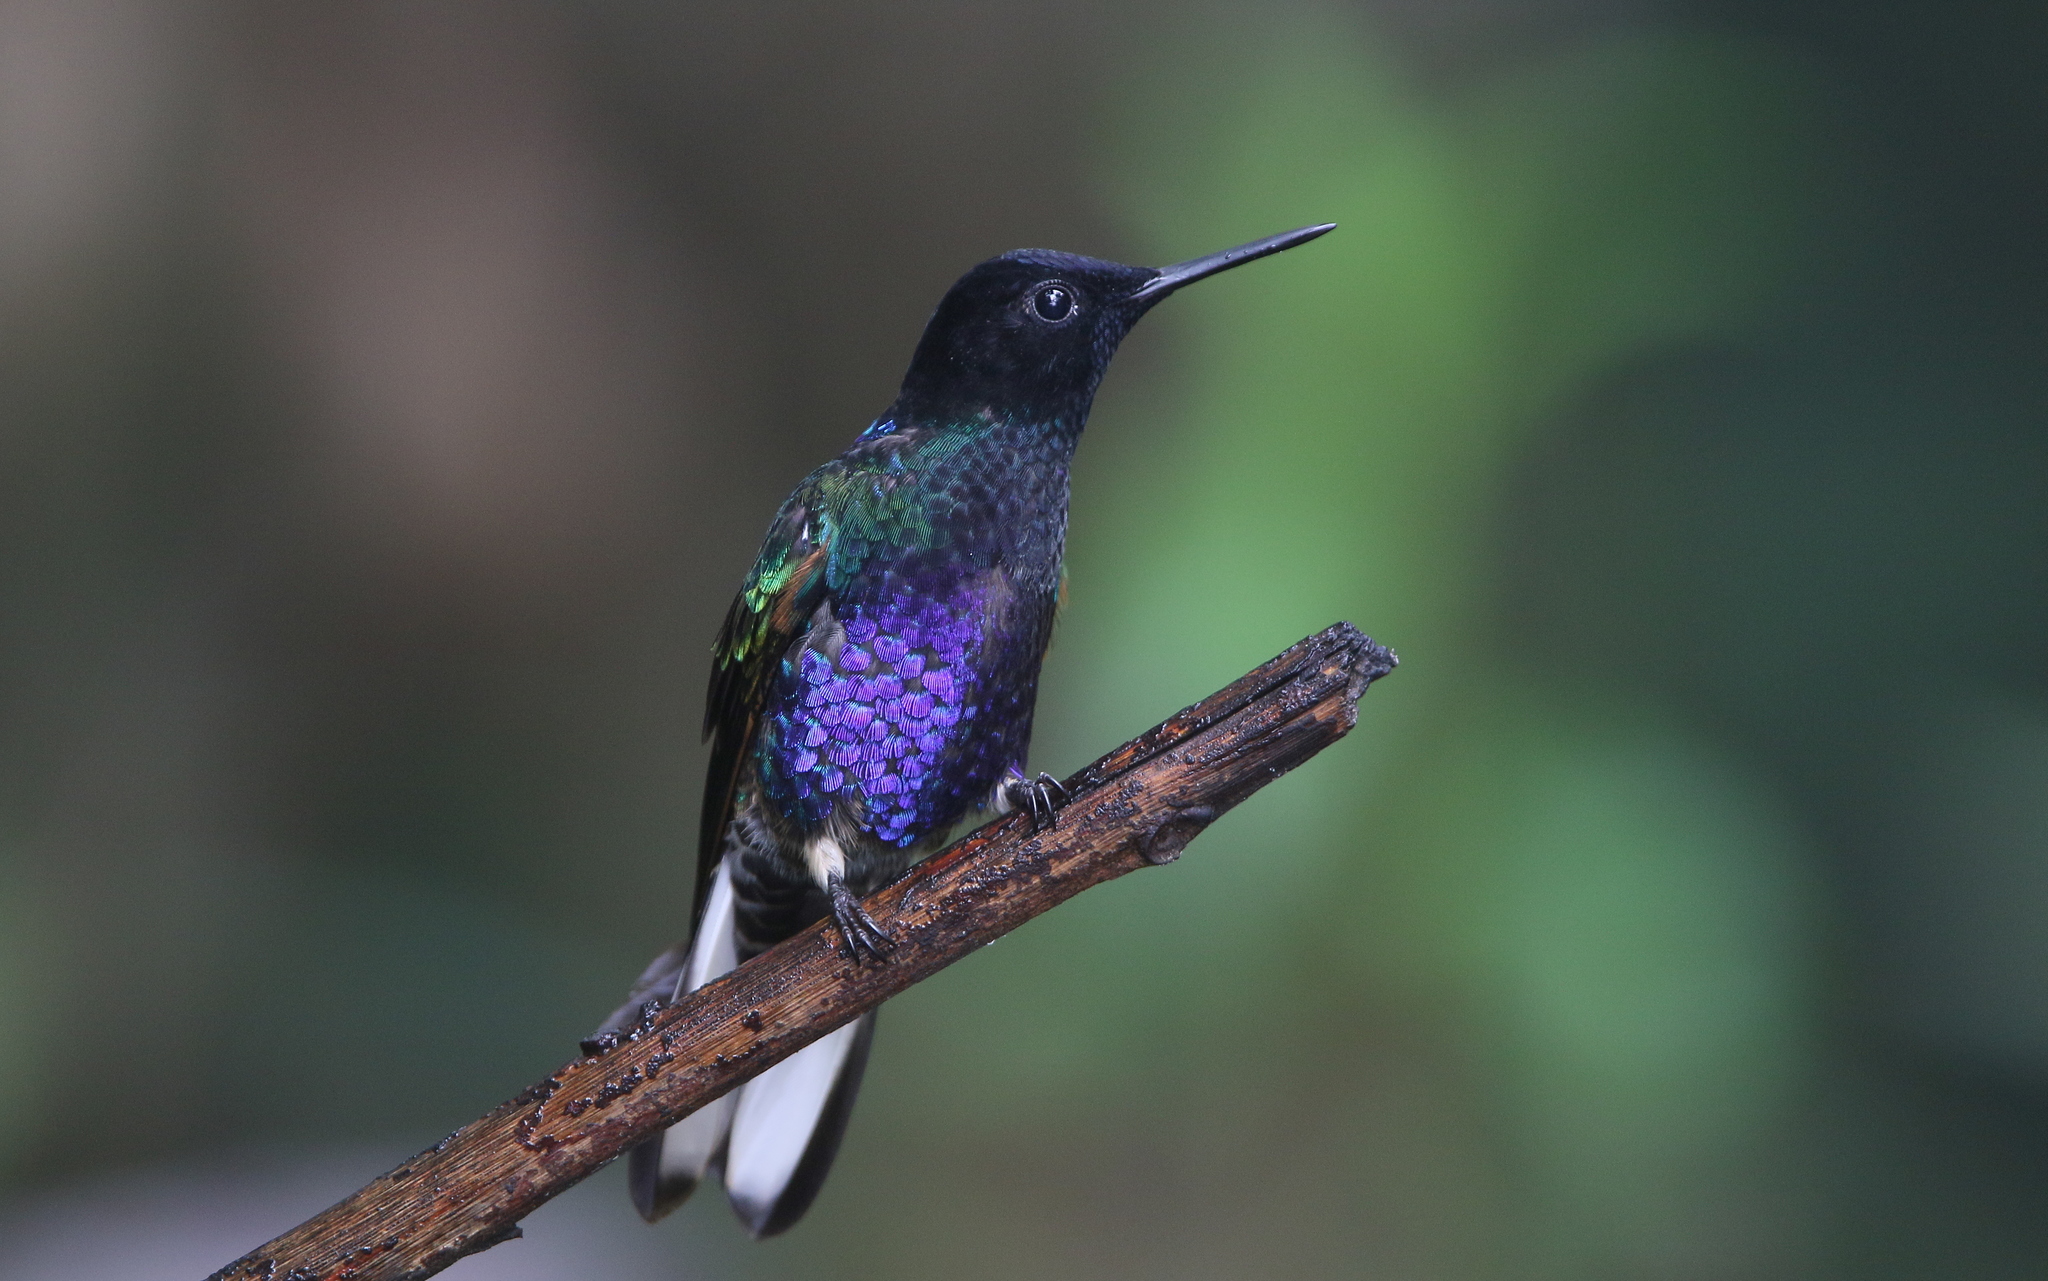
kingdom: Animalia
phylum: Chordata
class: Aves
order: Apodiformes
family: Trochilidae
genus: Boissonneaua
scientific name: Boissonneaua jardini
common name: Velvet-purple coronet
